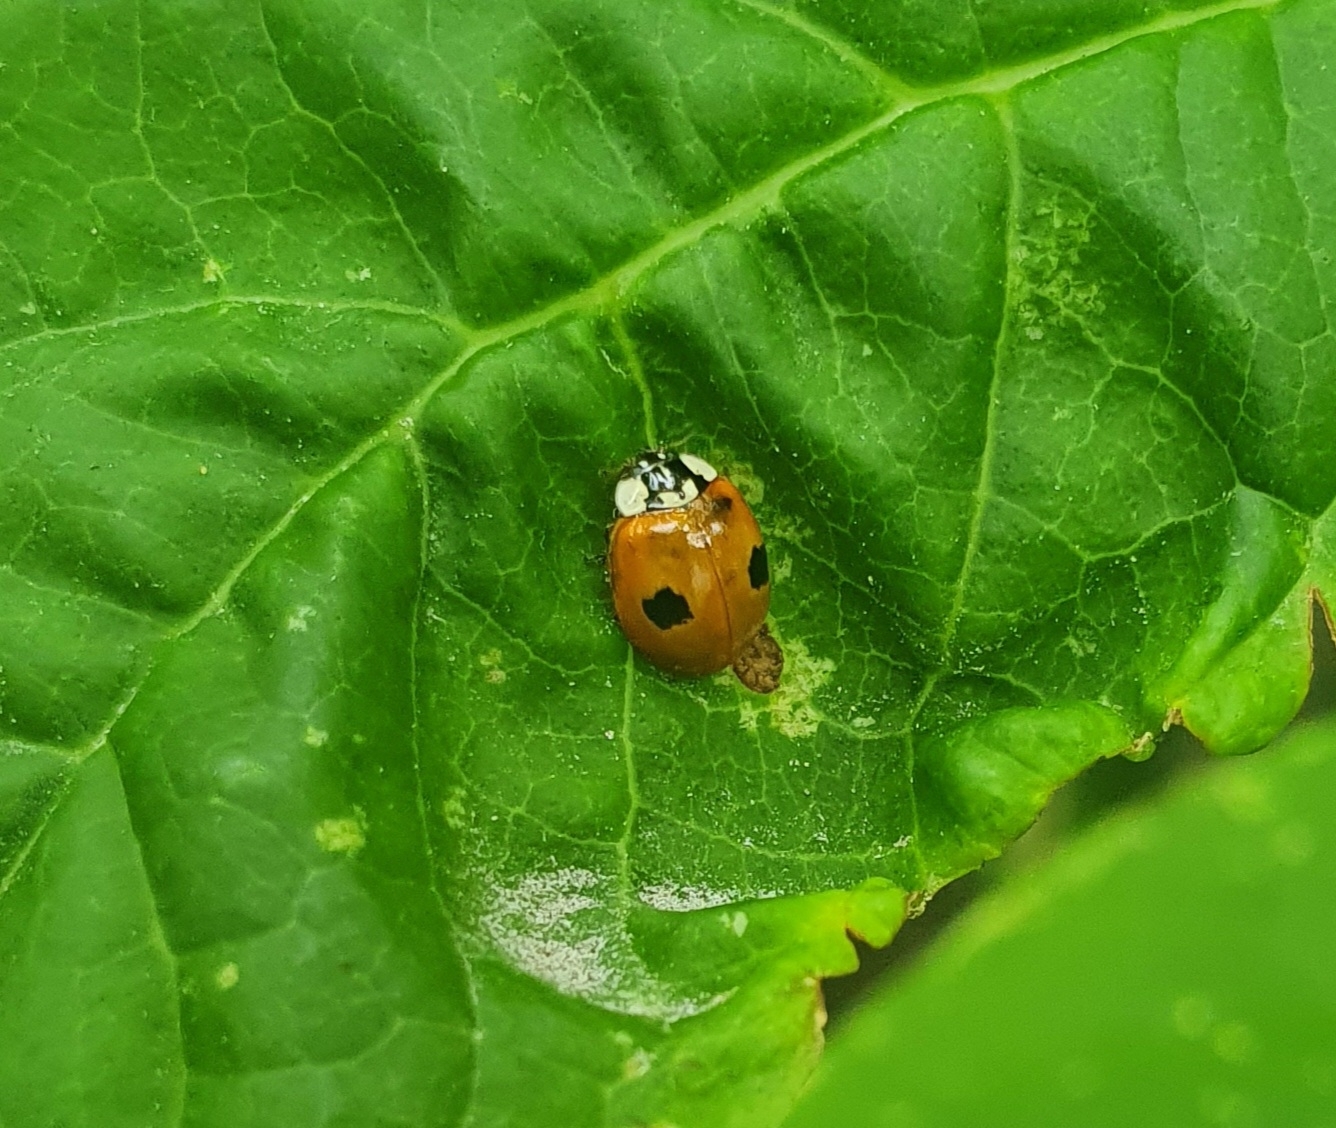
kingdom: Animalia
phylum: Arthropoda
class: Insecta
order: Coleoptera
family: Coccinellidae
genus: Adalia
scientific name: Adalia bipunctata
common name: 2-spot ladybird
